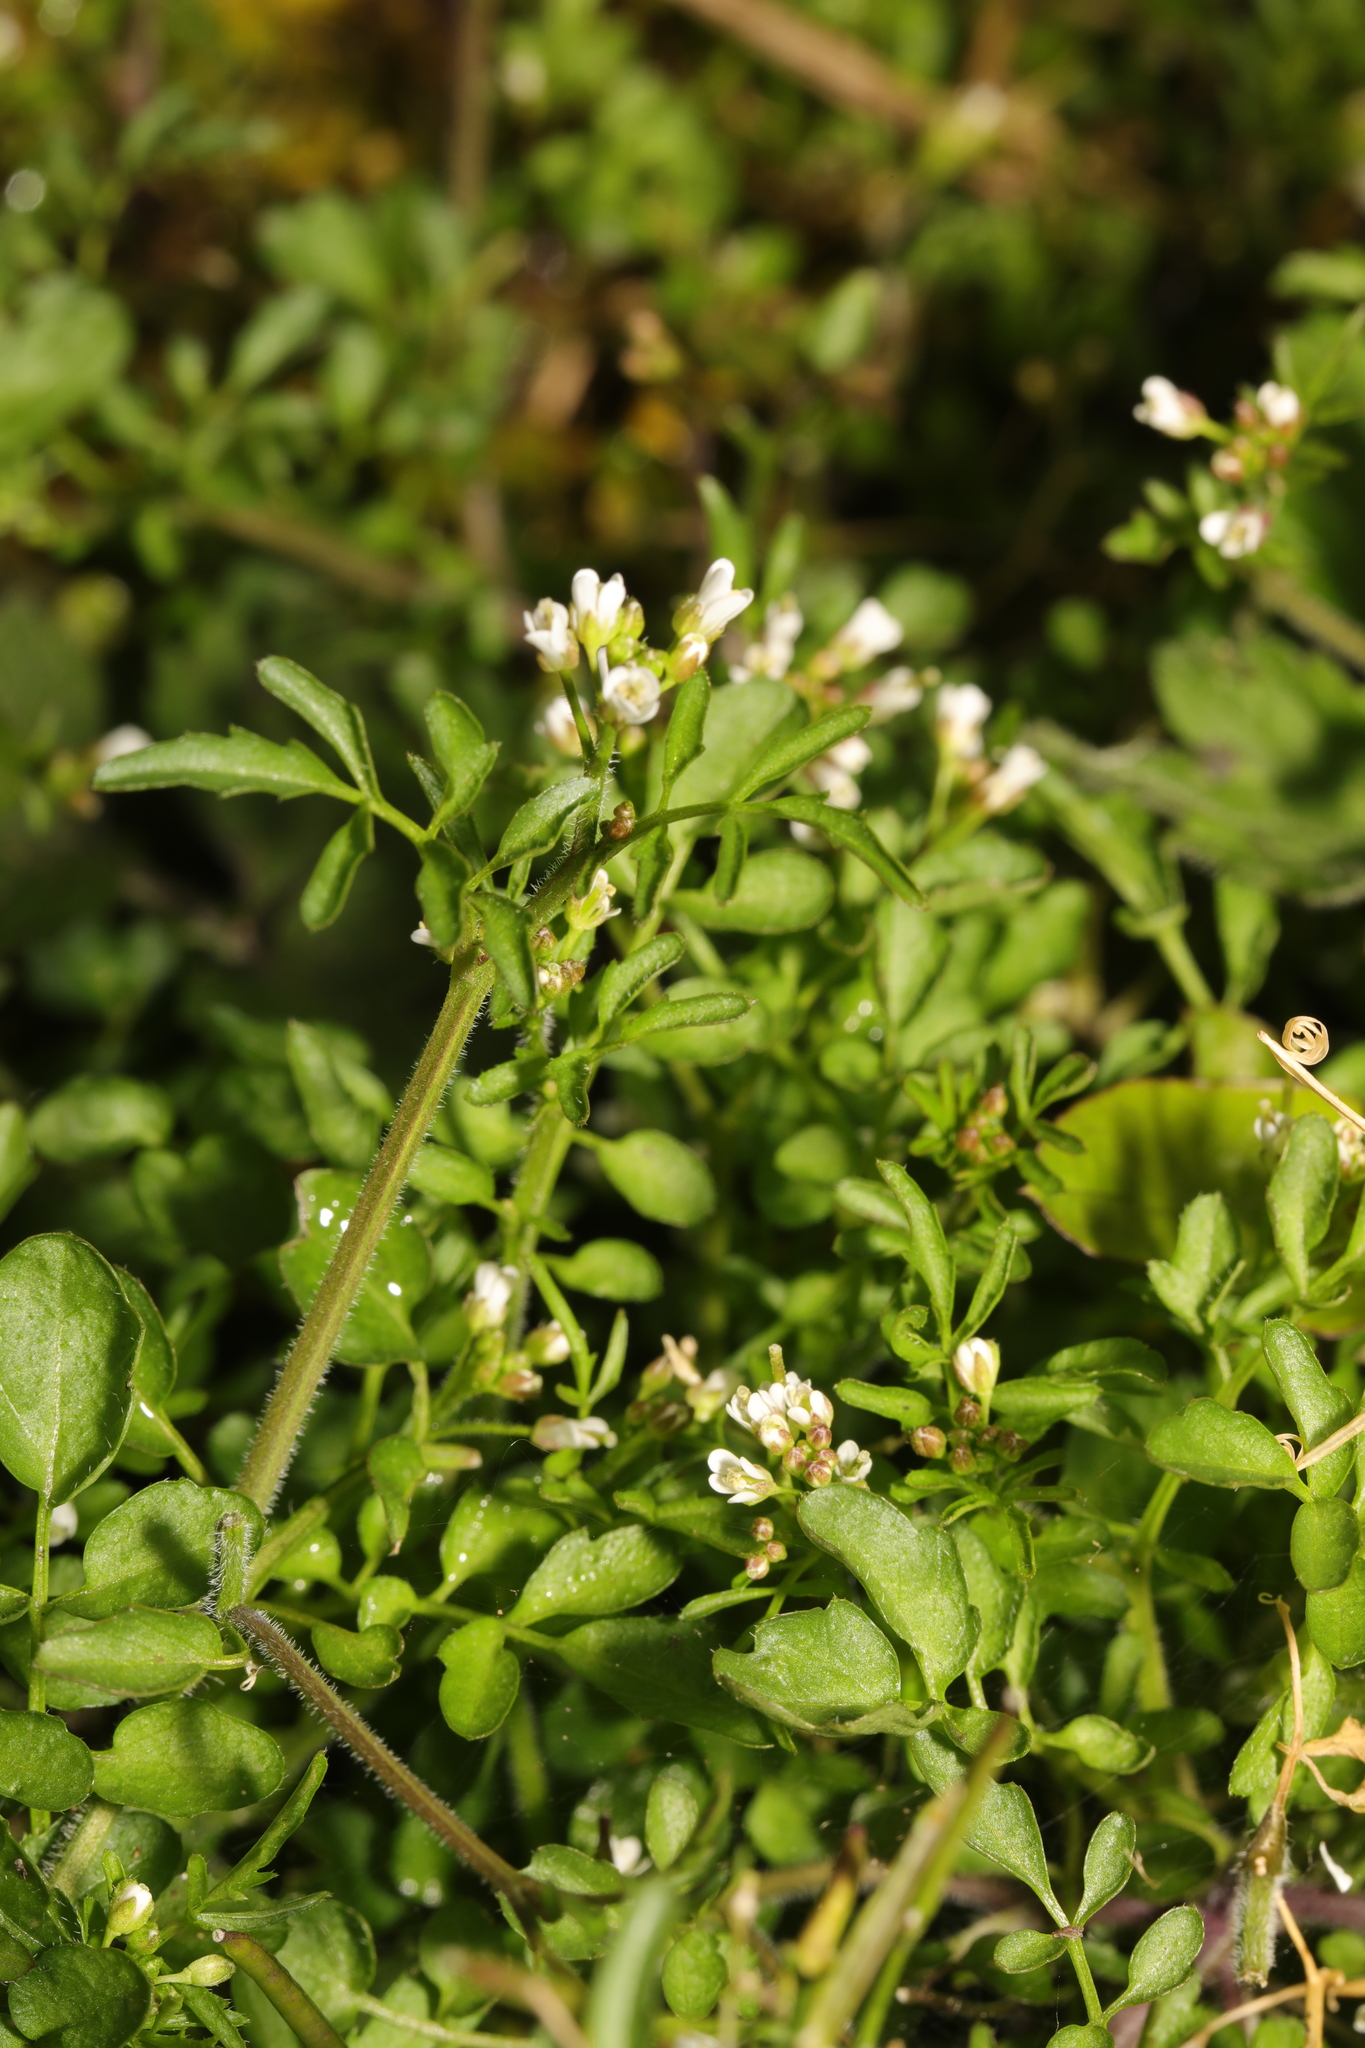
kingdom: Plantae
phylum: Tracheophyta
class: Magnoliopsida
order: Brassicales
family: Brassicaceae
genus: Cardamine
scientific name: Cardamine flexuosa
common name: Woodland bittercress
